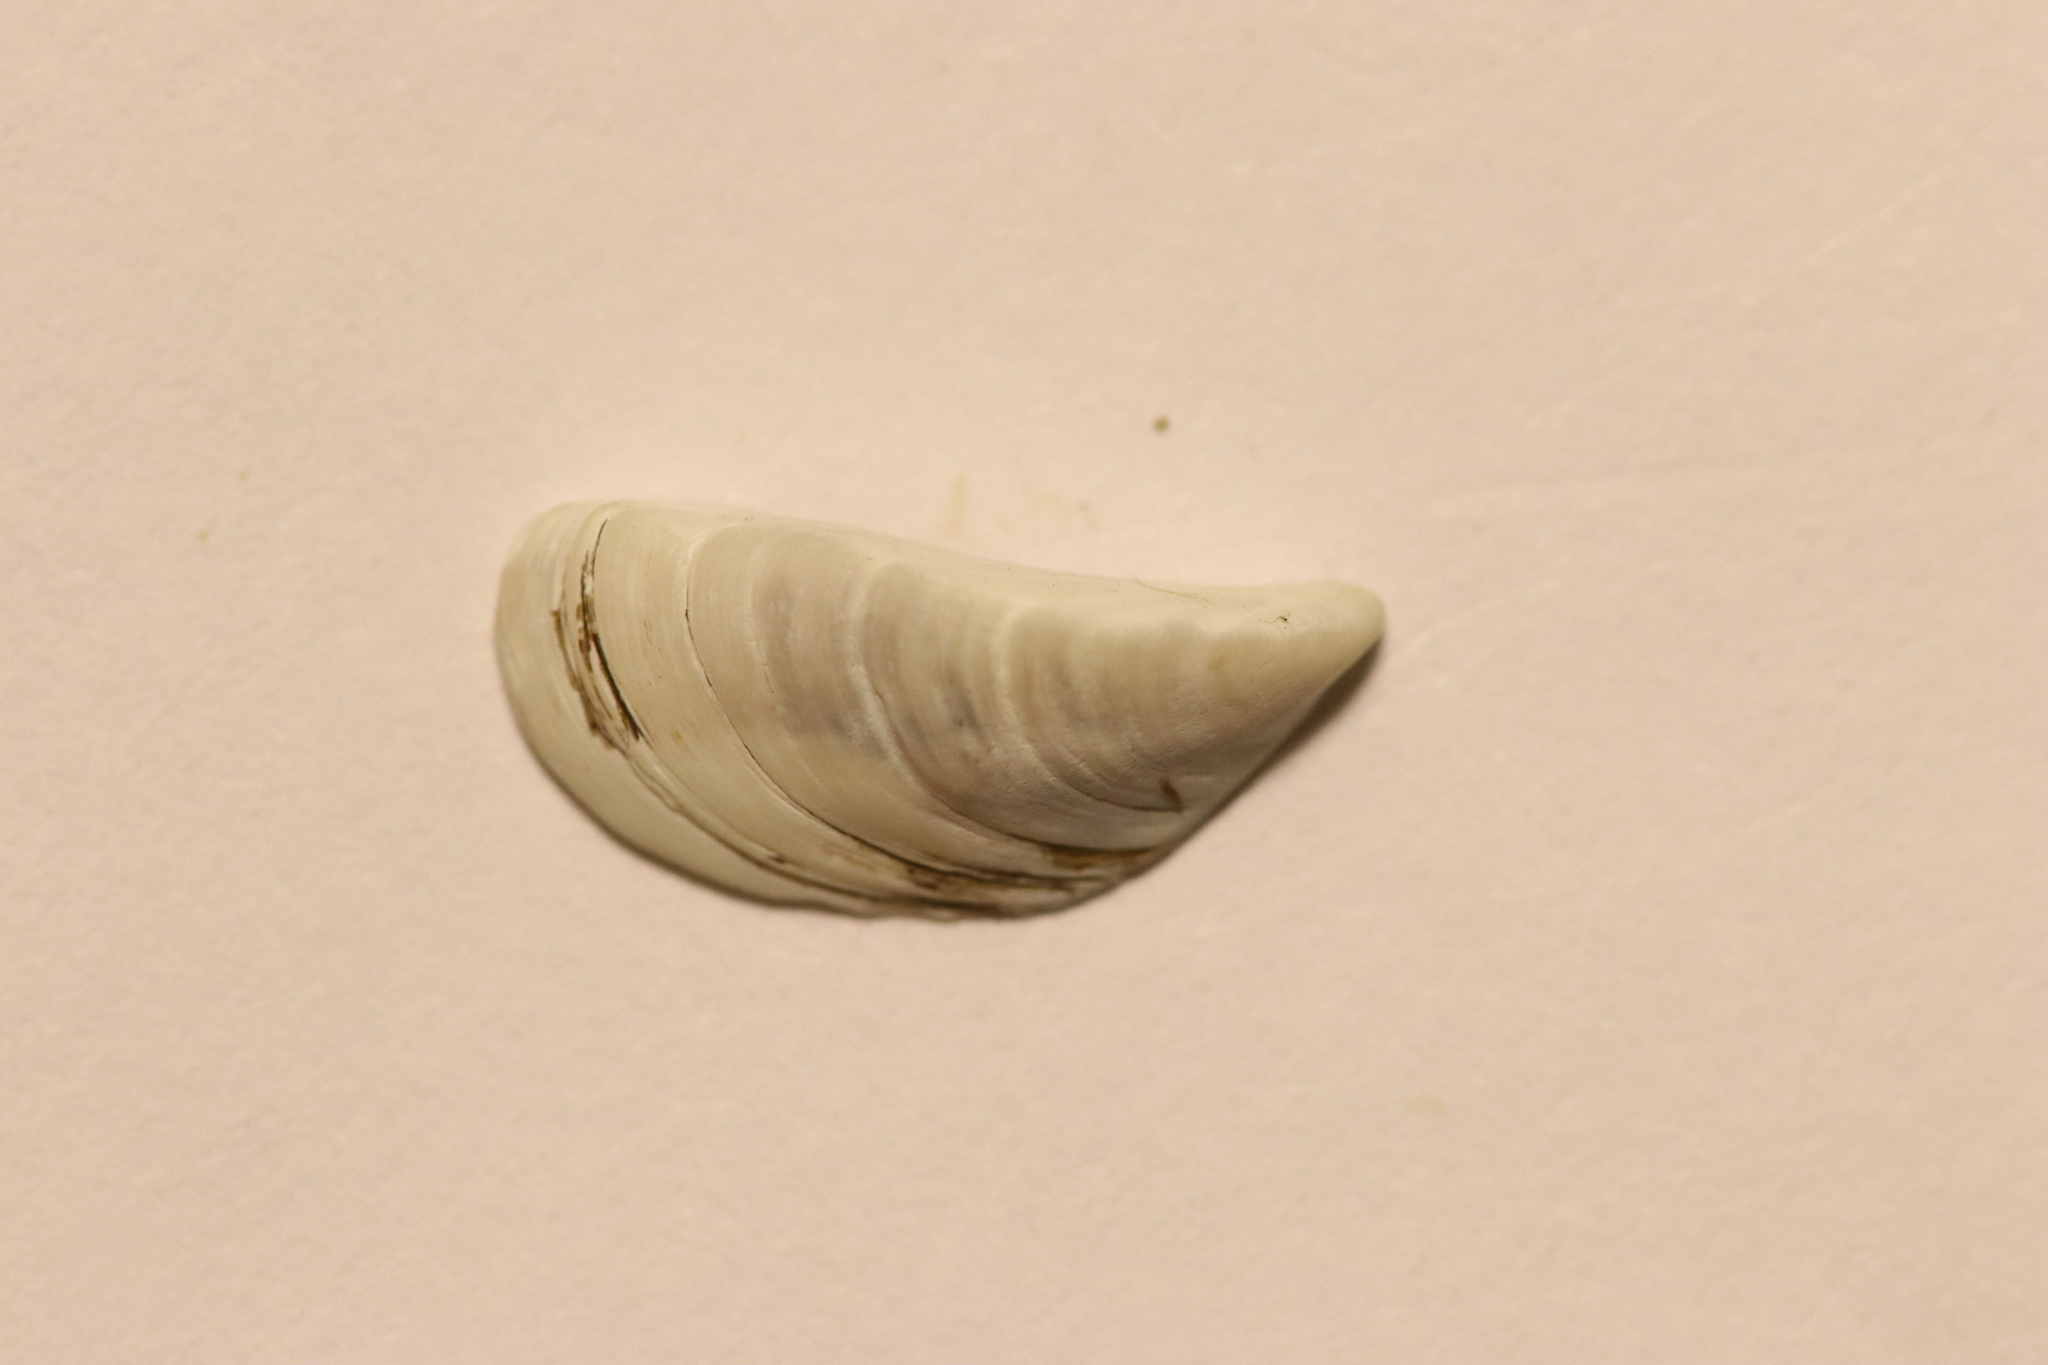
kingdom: Animalia
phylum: Mollusca
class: Bivalvia
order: Myida
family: Dreissenidae
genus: Dreissena
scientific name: Dreissena polymorpha
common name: Zebra mussel
